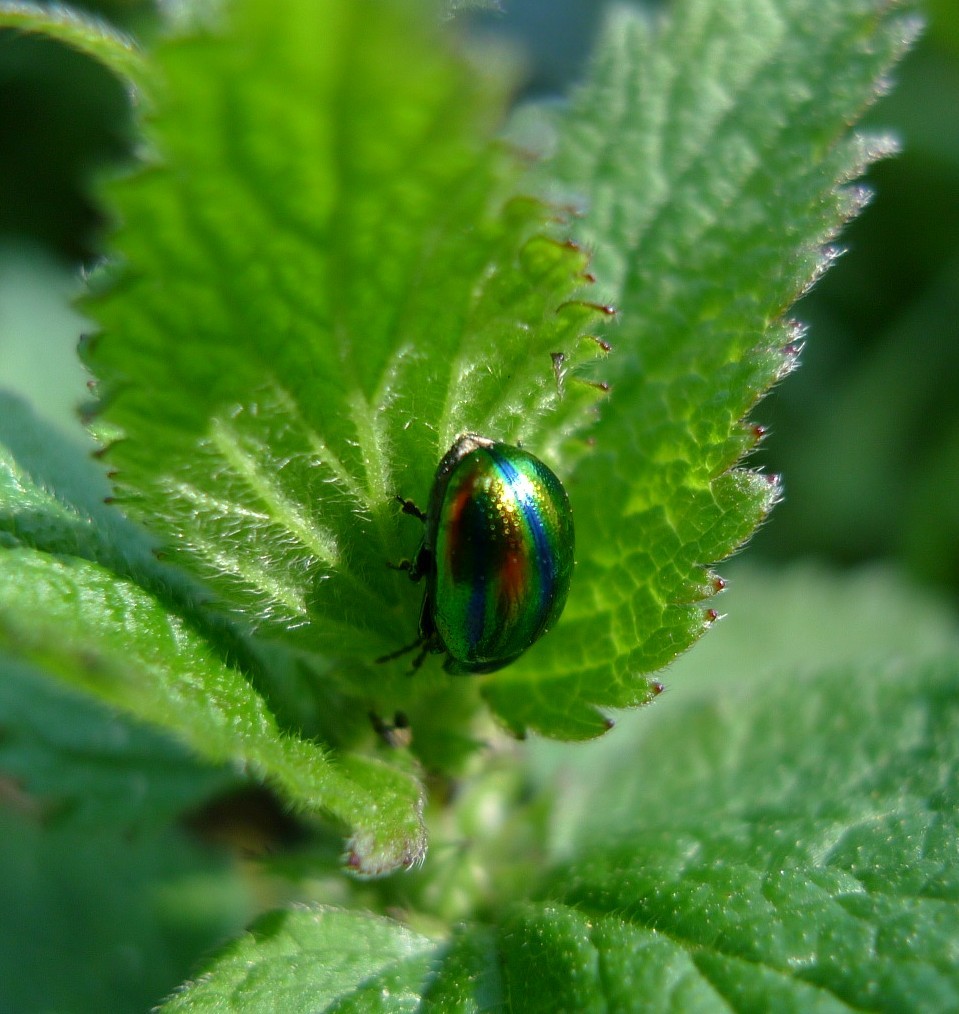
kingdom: Animalia
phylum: Arthropoda
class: Insecta
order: Coleoptera
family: Chrysomelidae
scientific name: Chrysomelidae
